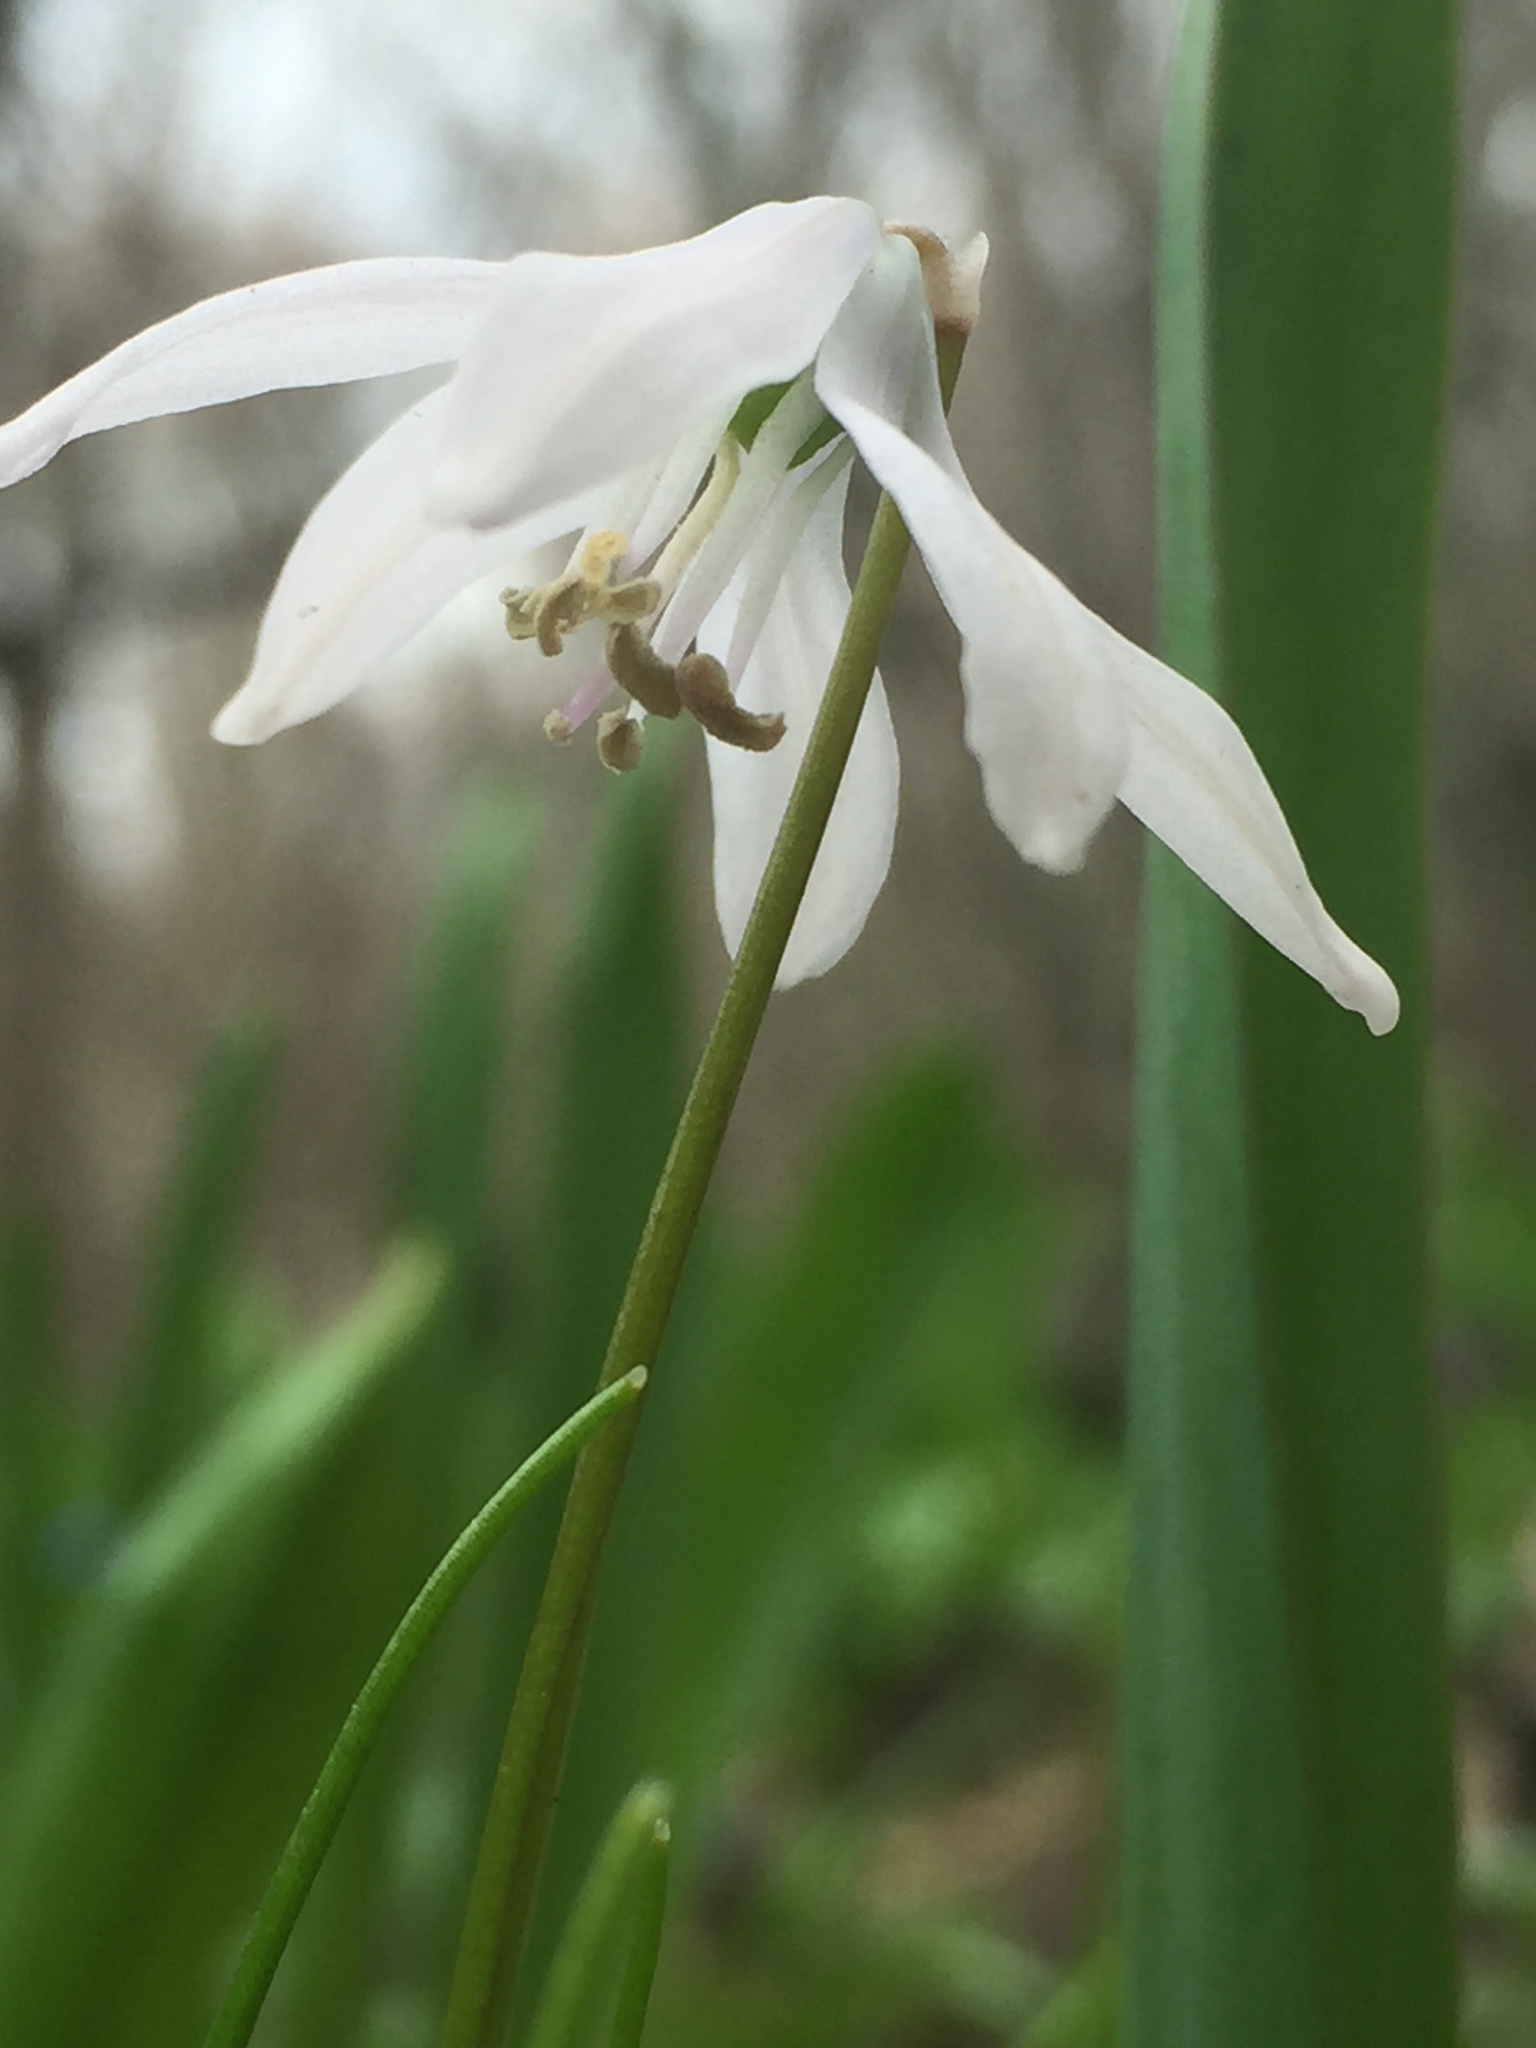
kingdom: Plantae
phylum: Tracheophyta
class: Liliopsida
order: Asparagales
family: Asparagaceae
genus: Scilla
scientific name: Scilla siberica
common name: Siberian squill
